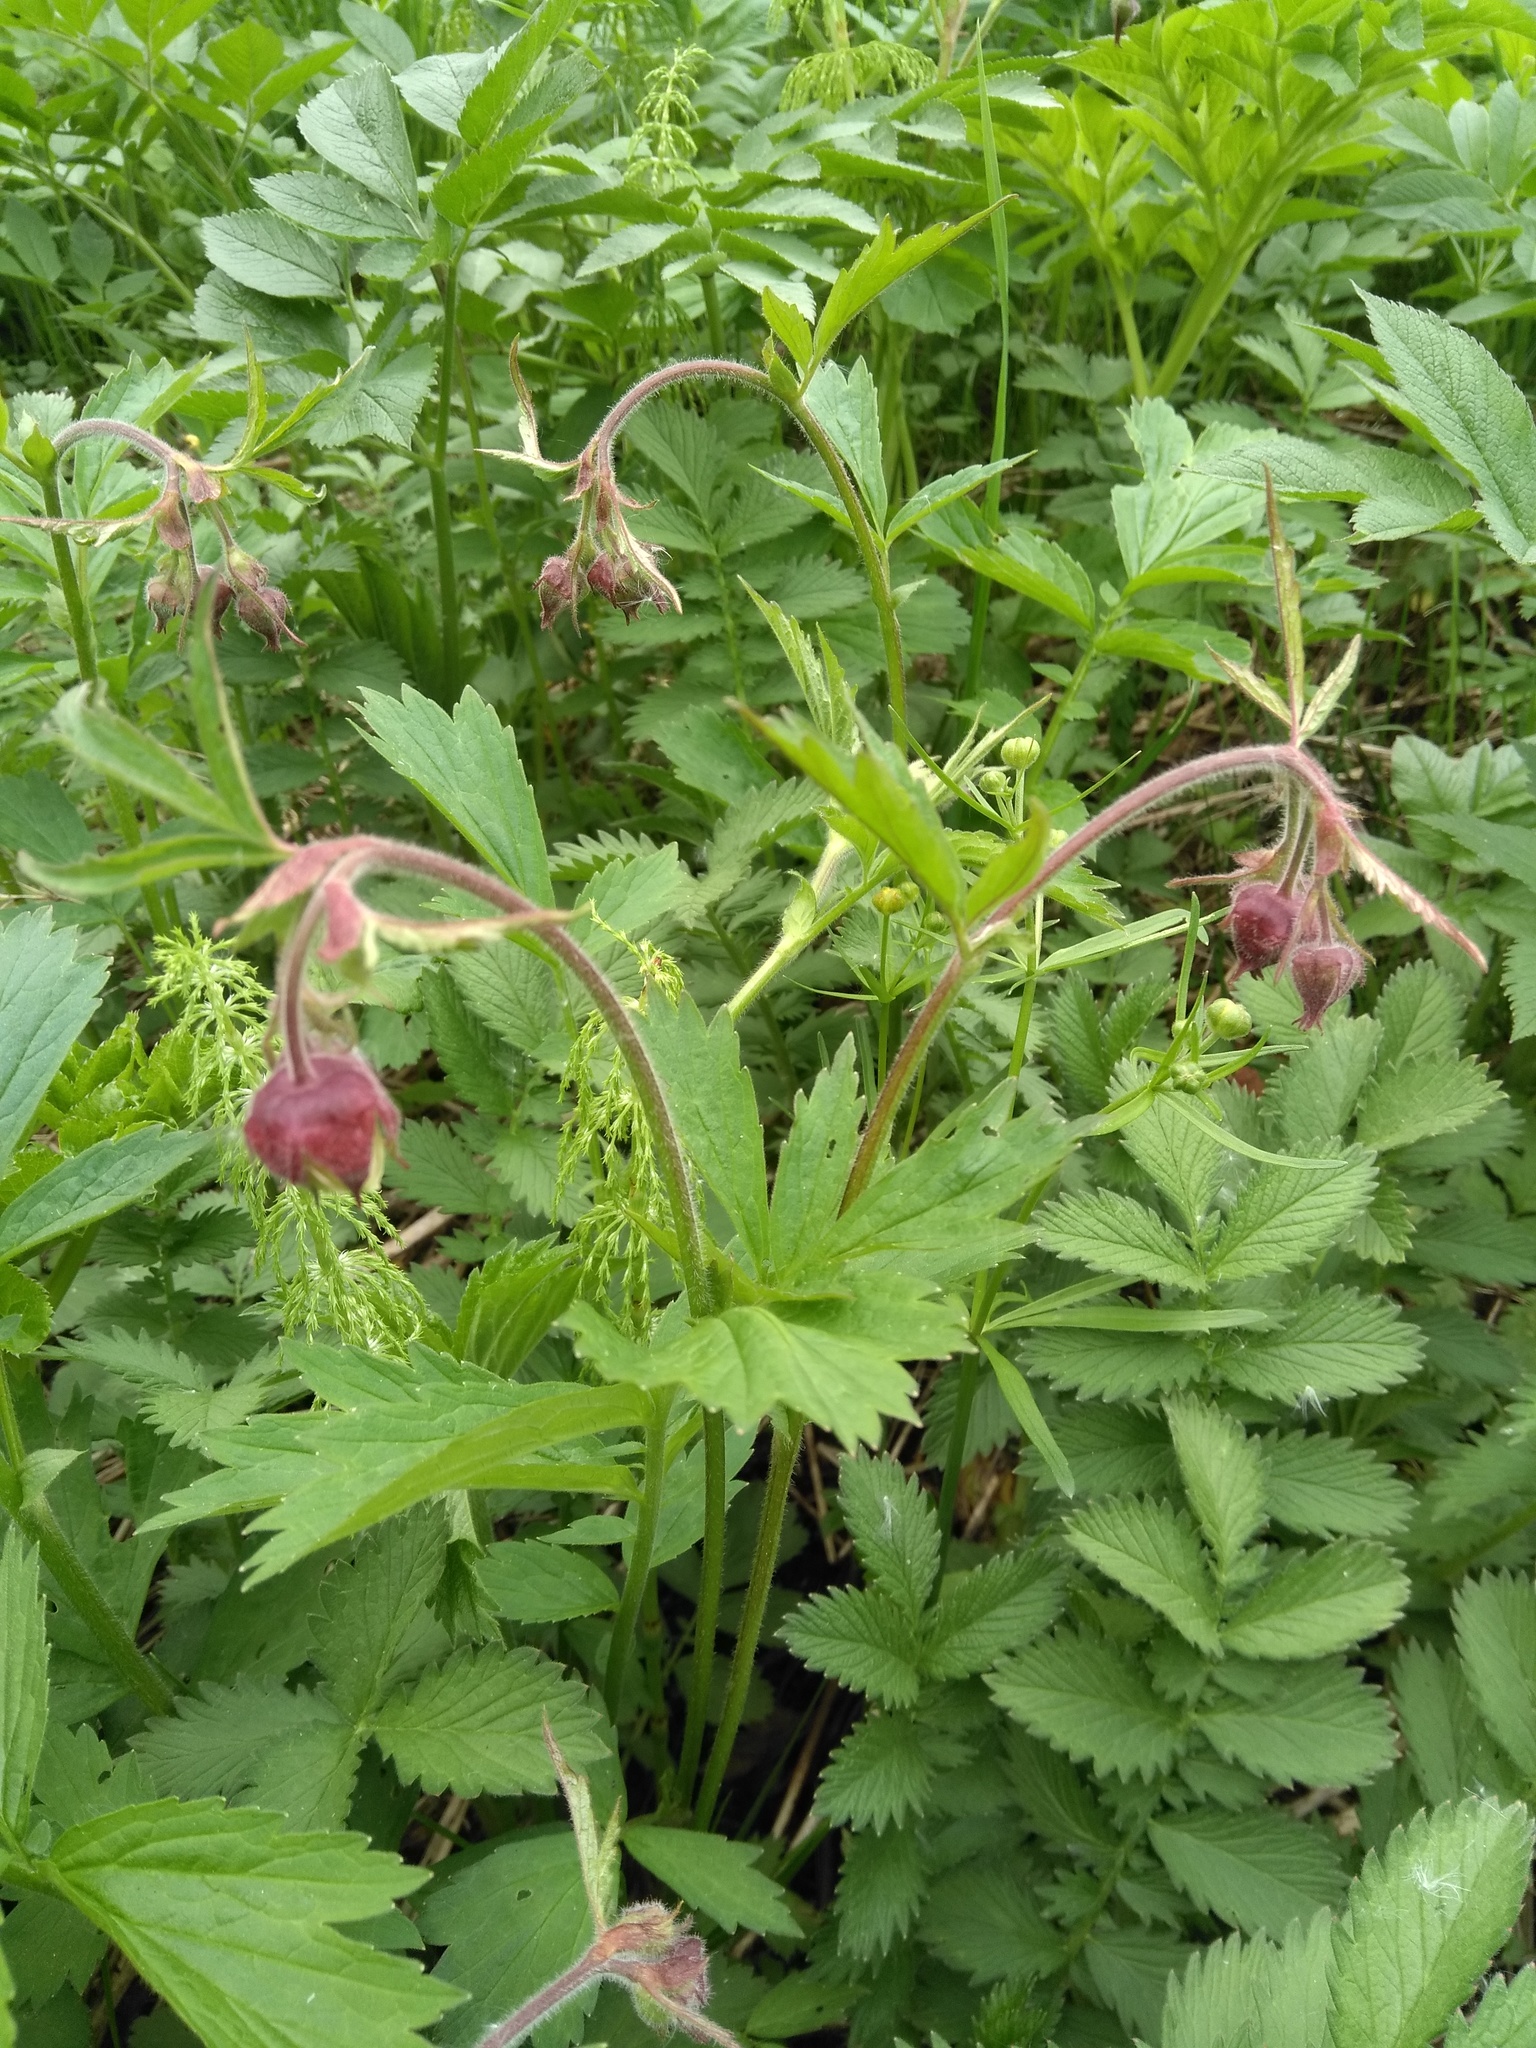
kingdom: Plantae
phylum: Tracheophyta
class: Magnoliopsida
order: Rosales
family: Rosaceae
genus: Geum
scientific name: Geum rivale
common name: Water avens
